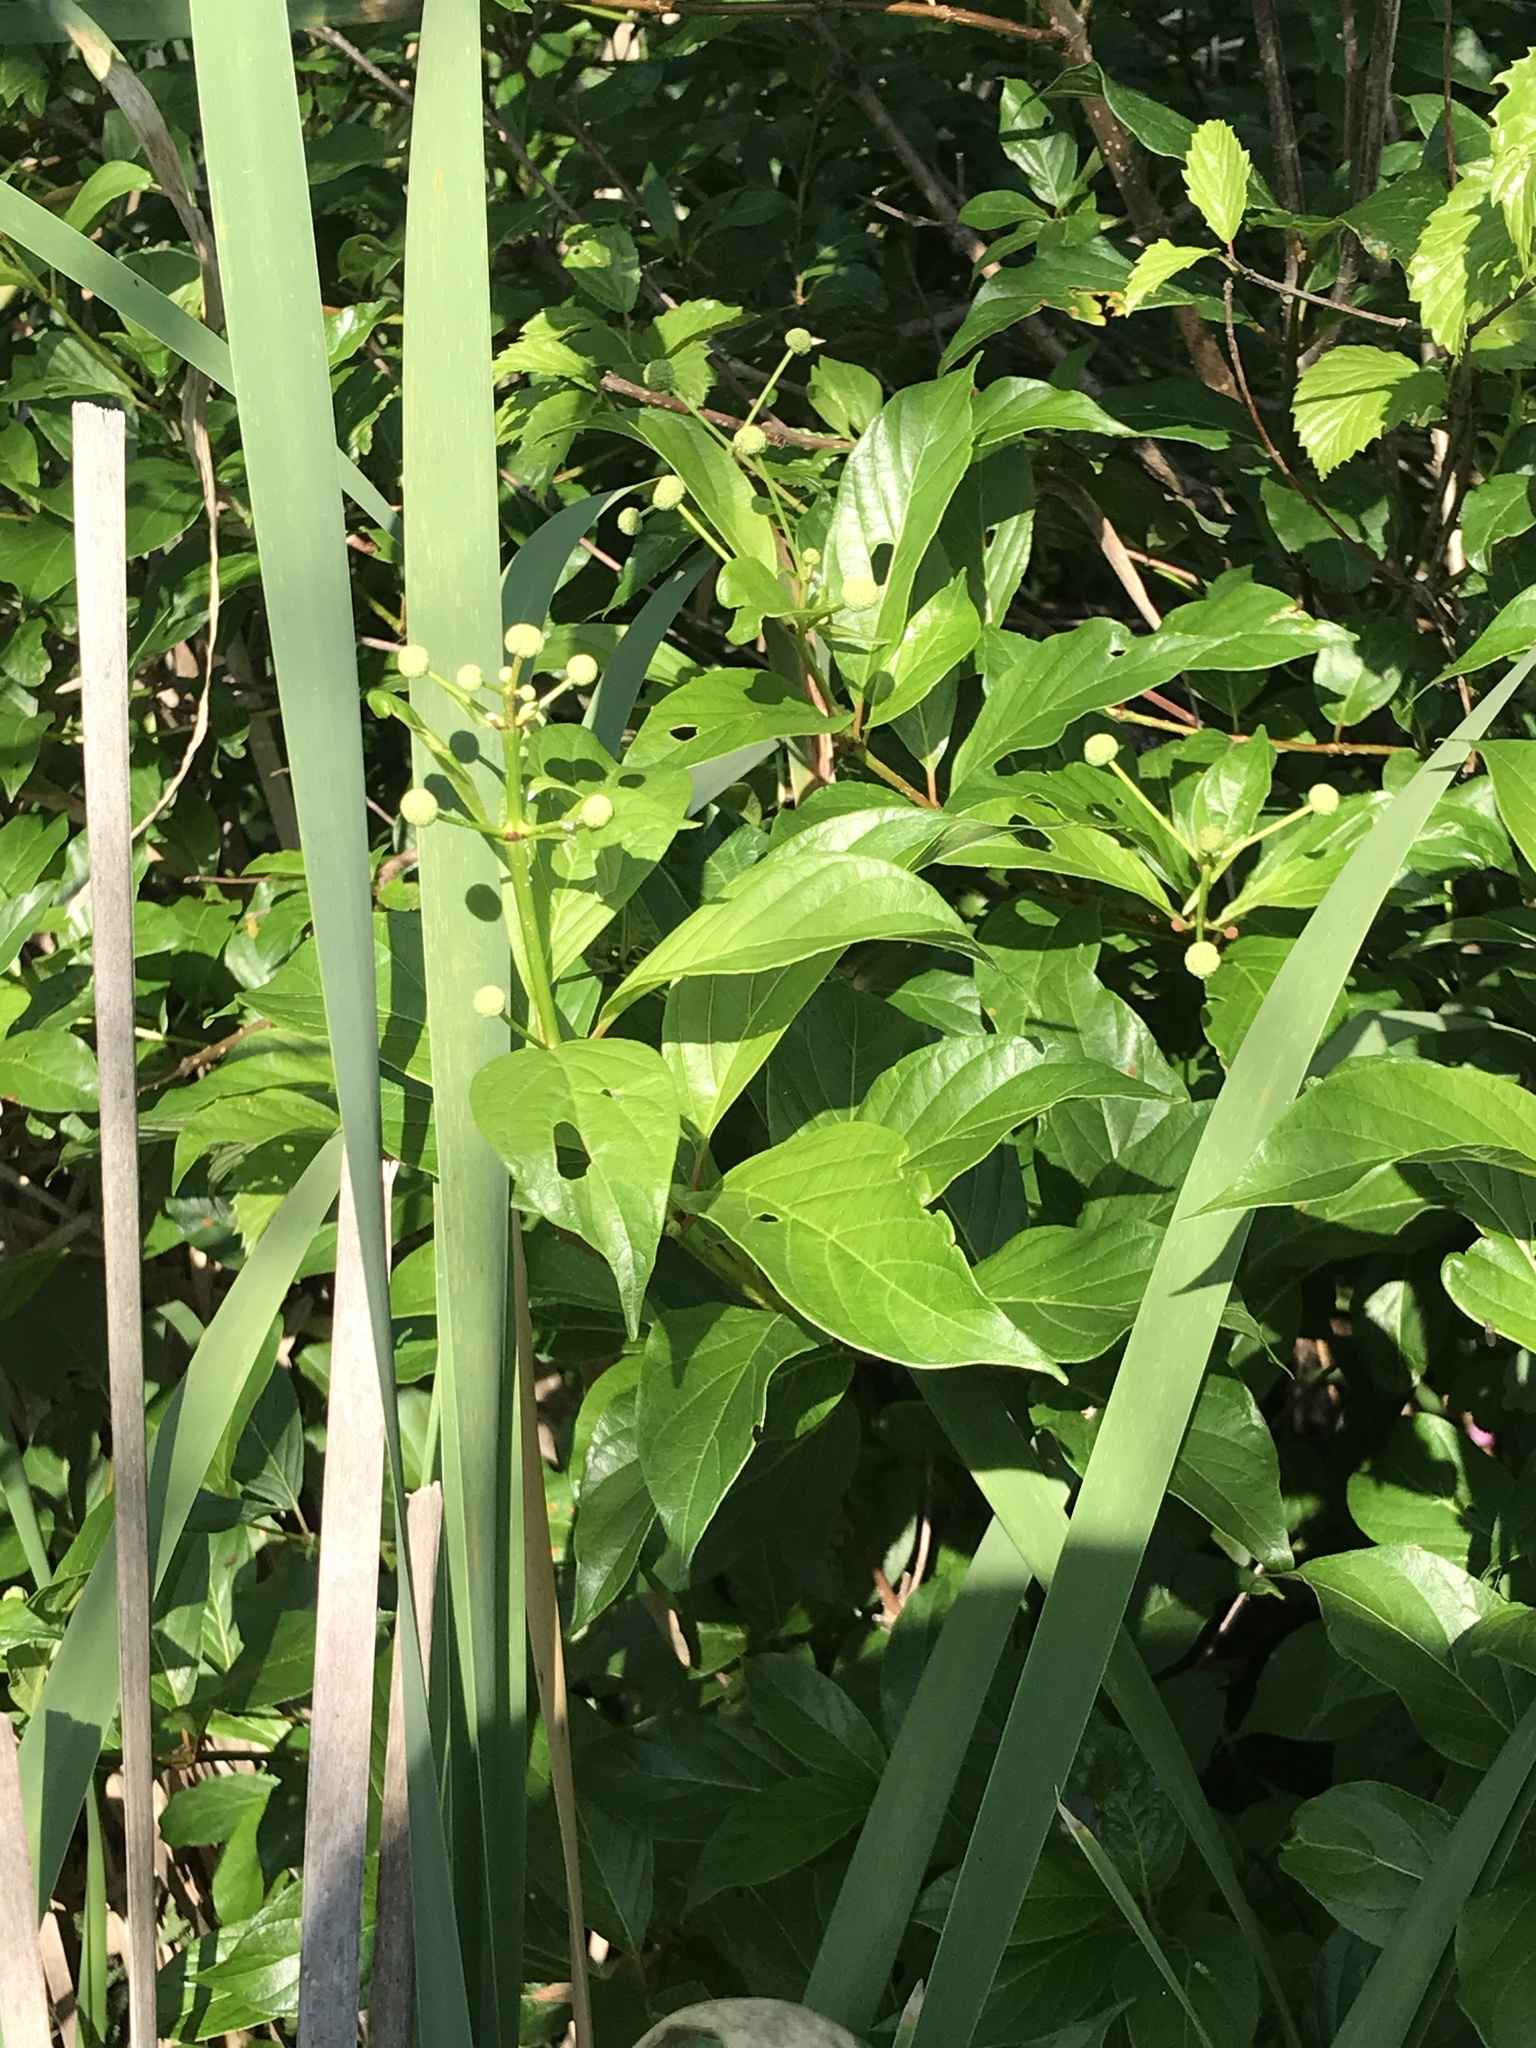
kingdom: Plantae
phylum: Tracheophyta
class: Magnoliopsida
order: Gentianales
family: Rubiaceae
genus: Cephalanthus
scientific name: Cephalanthus occidentalis
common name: Button-willow
